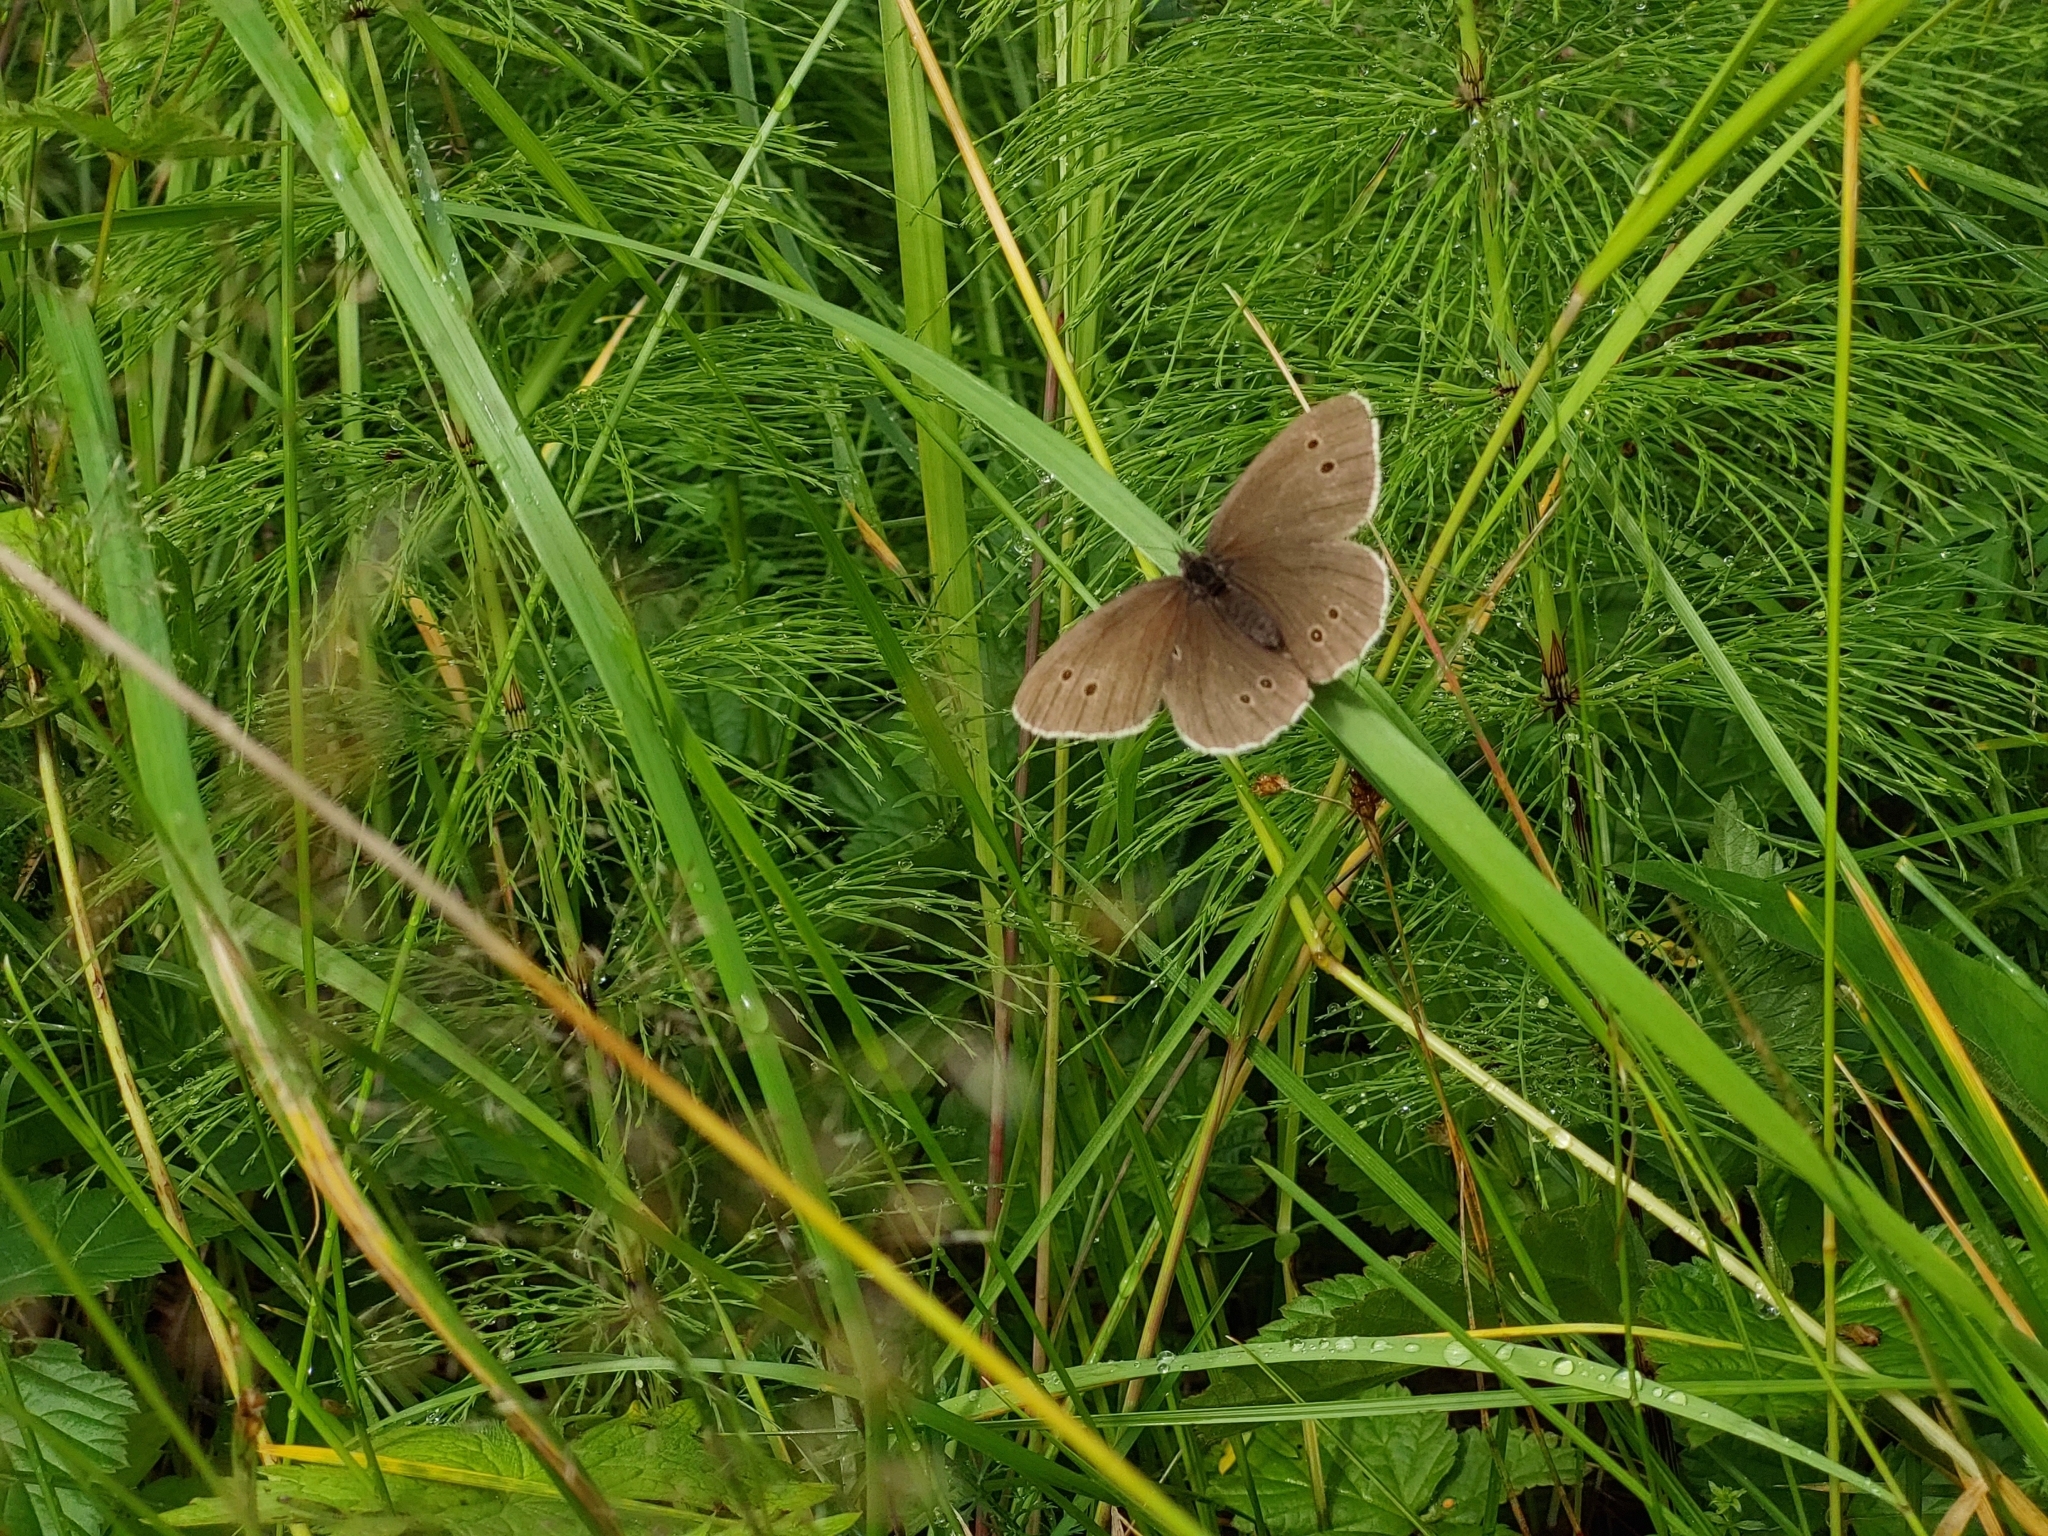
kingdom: Animalia
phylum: Arthropoda
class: Insecta
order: Lepidoptera
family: Nymphalidae
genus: Aphantopus
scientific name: Aphantopus hyperantus
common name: Ringlet
